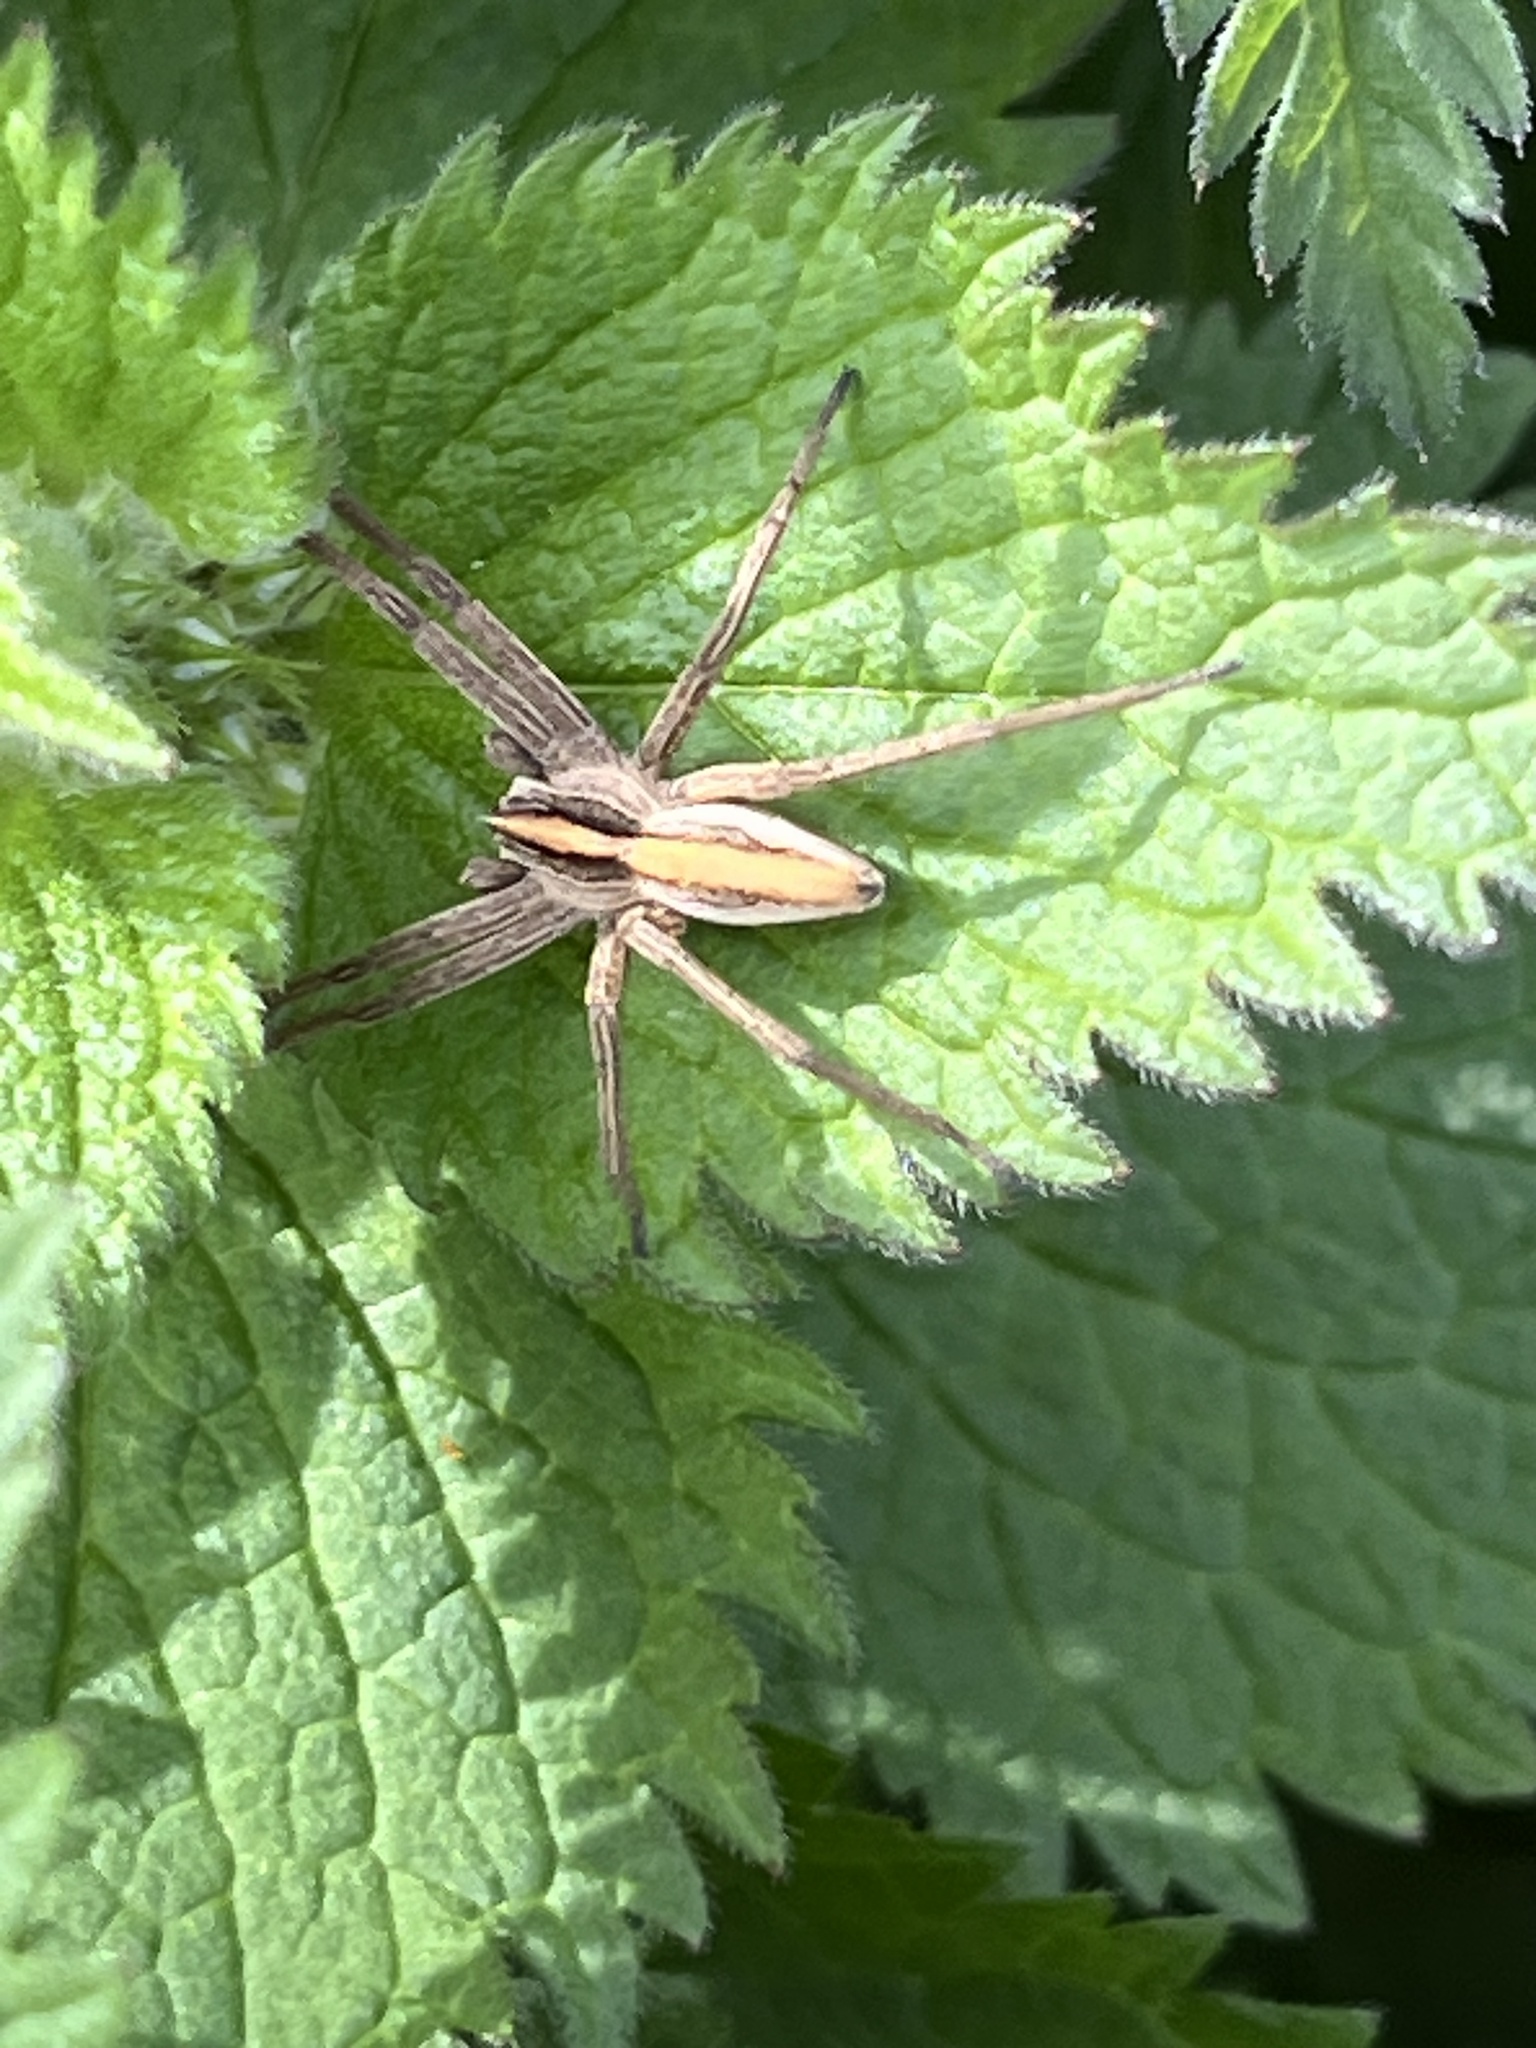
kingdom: Animalia
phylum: Arthropoda
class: Arachnida
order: Araneae
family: Pisauridae
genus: Pisaura
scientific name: Pisaura mirabilis
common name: Tent spider
